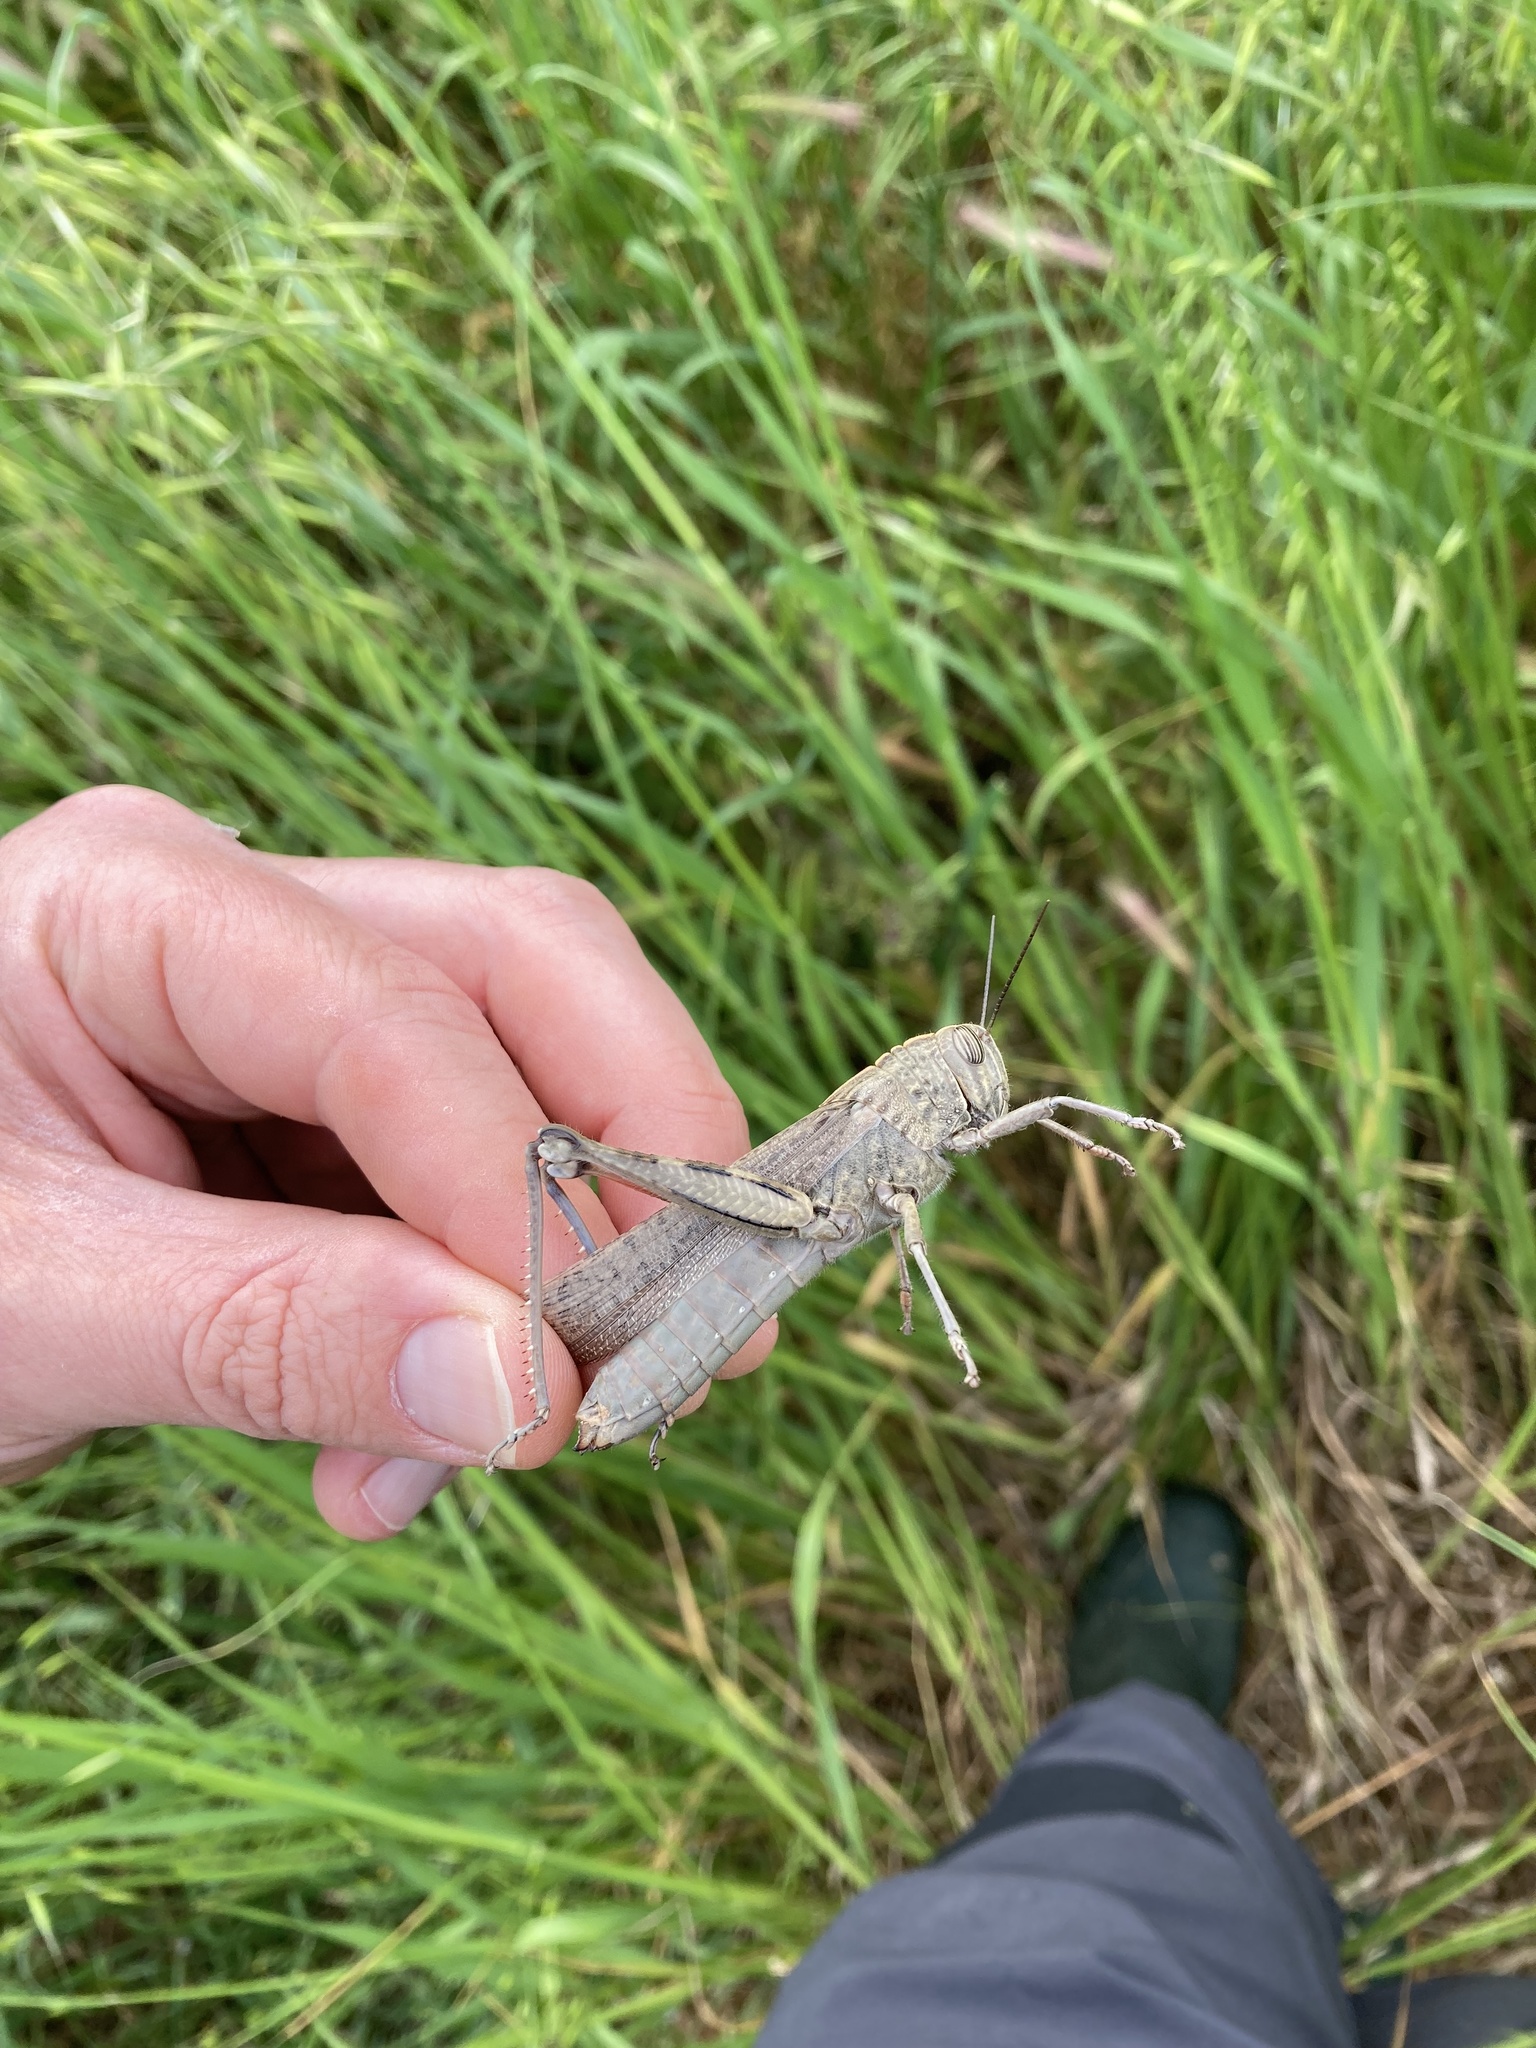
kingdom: Animalia
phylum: Arthropoda
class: Insecta
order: Orthoptera
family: Acrididae
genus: Anacridium
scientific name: Anacridium aegyptium
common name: Egyptian grasshopper
